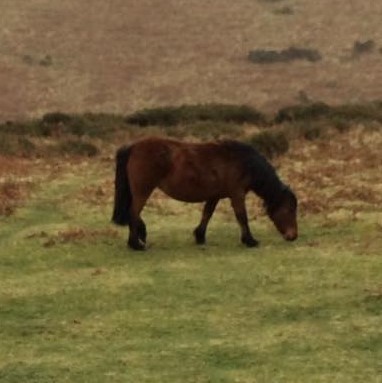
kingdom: Animalia
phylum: Chordata
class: Mammalia
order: Perissodactyla
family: Equidae
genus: Equus
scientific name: Equus caballus
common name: Horse
